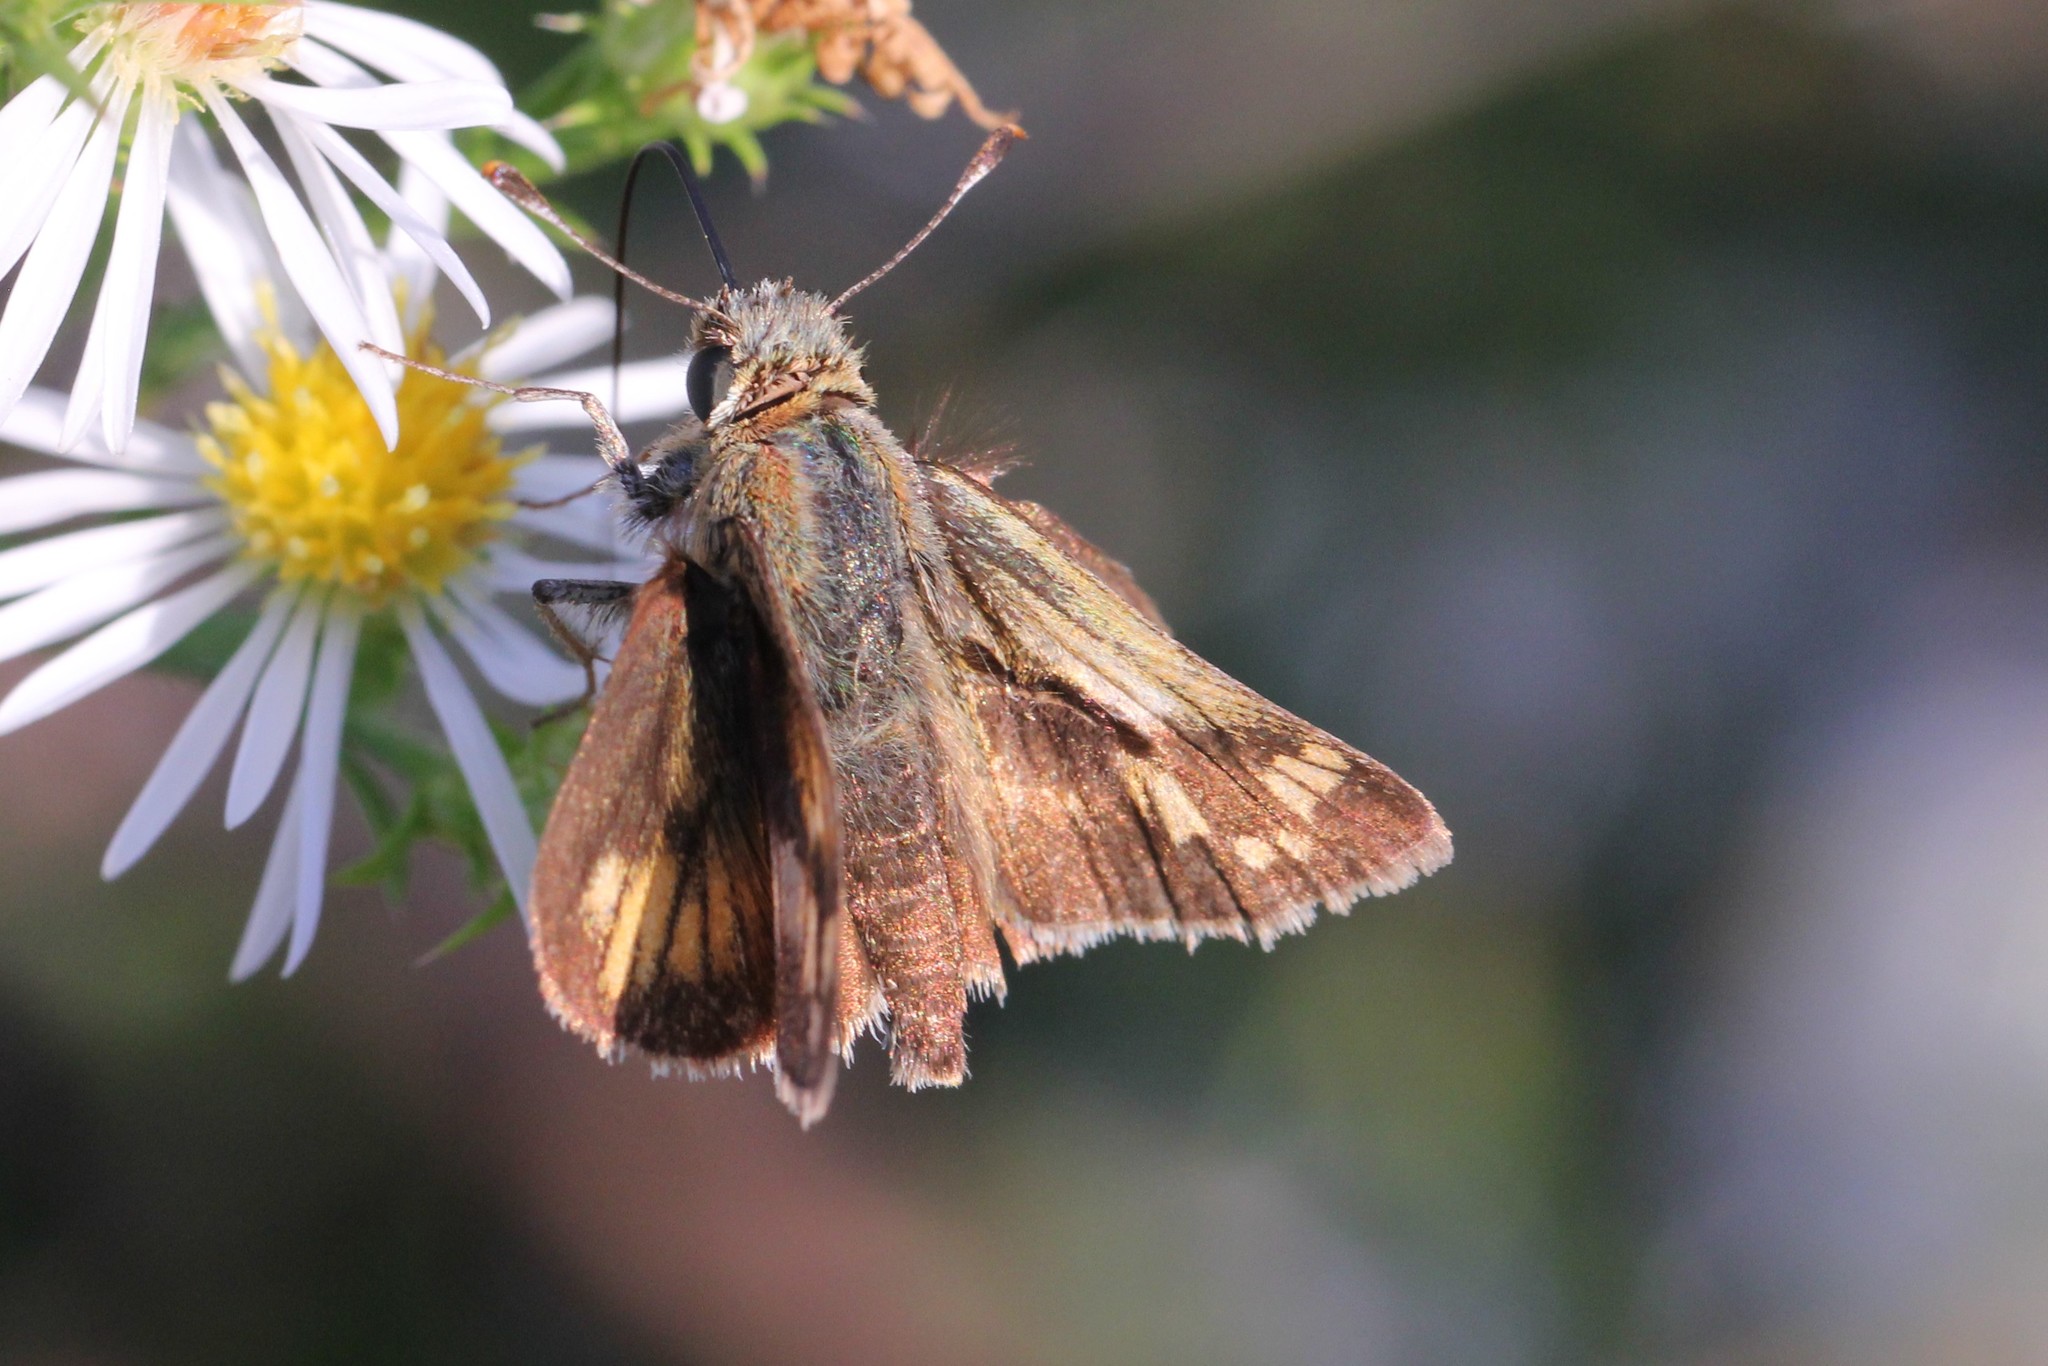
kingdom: Animalia
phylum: Arthropoda
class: Insecta
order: Lepidoptera
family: Hesperiidae
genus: Polites
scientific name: Polites coras
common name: Peck's skipper
